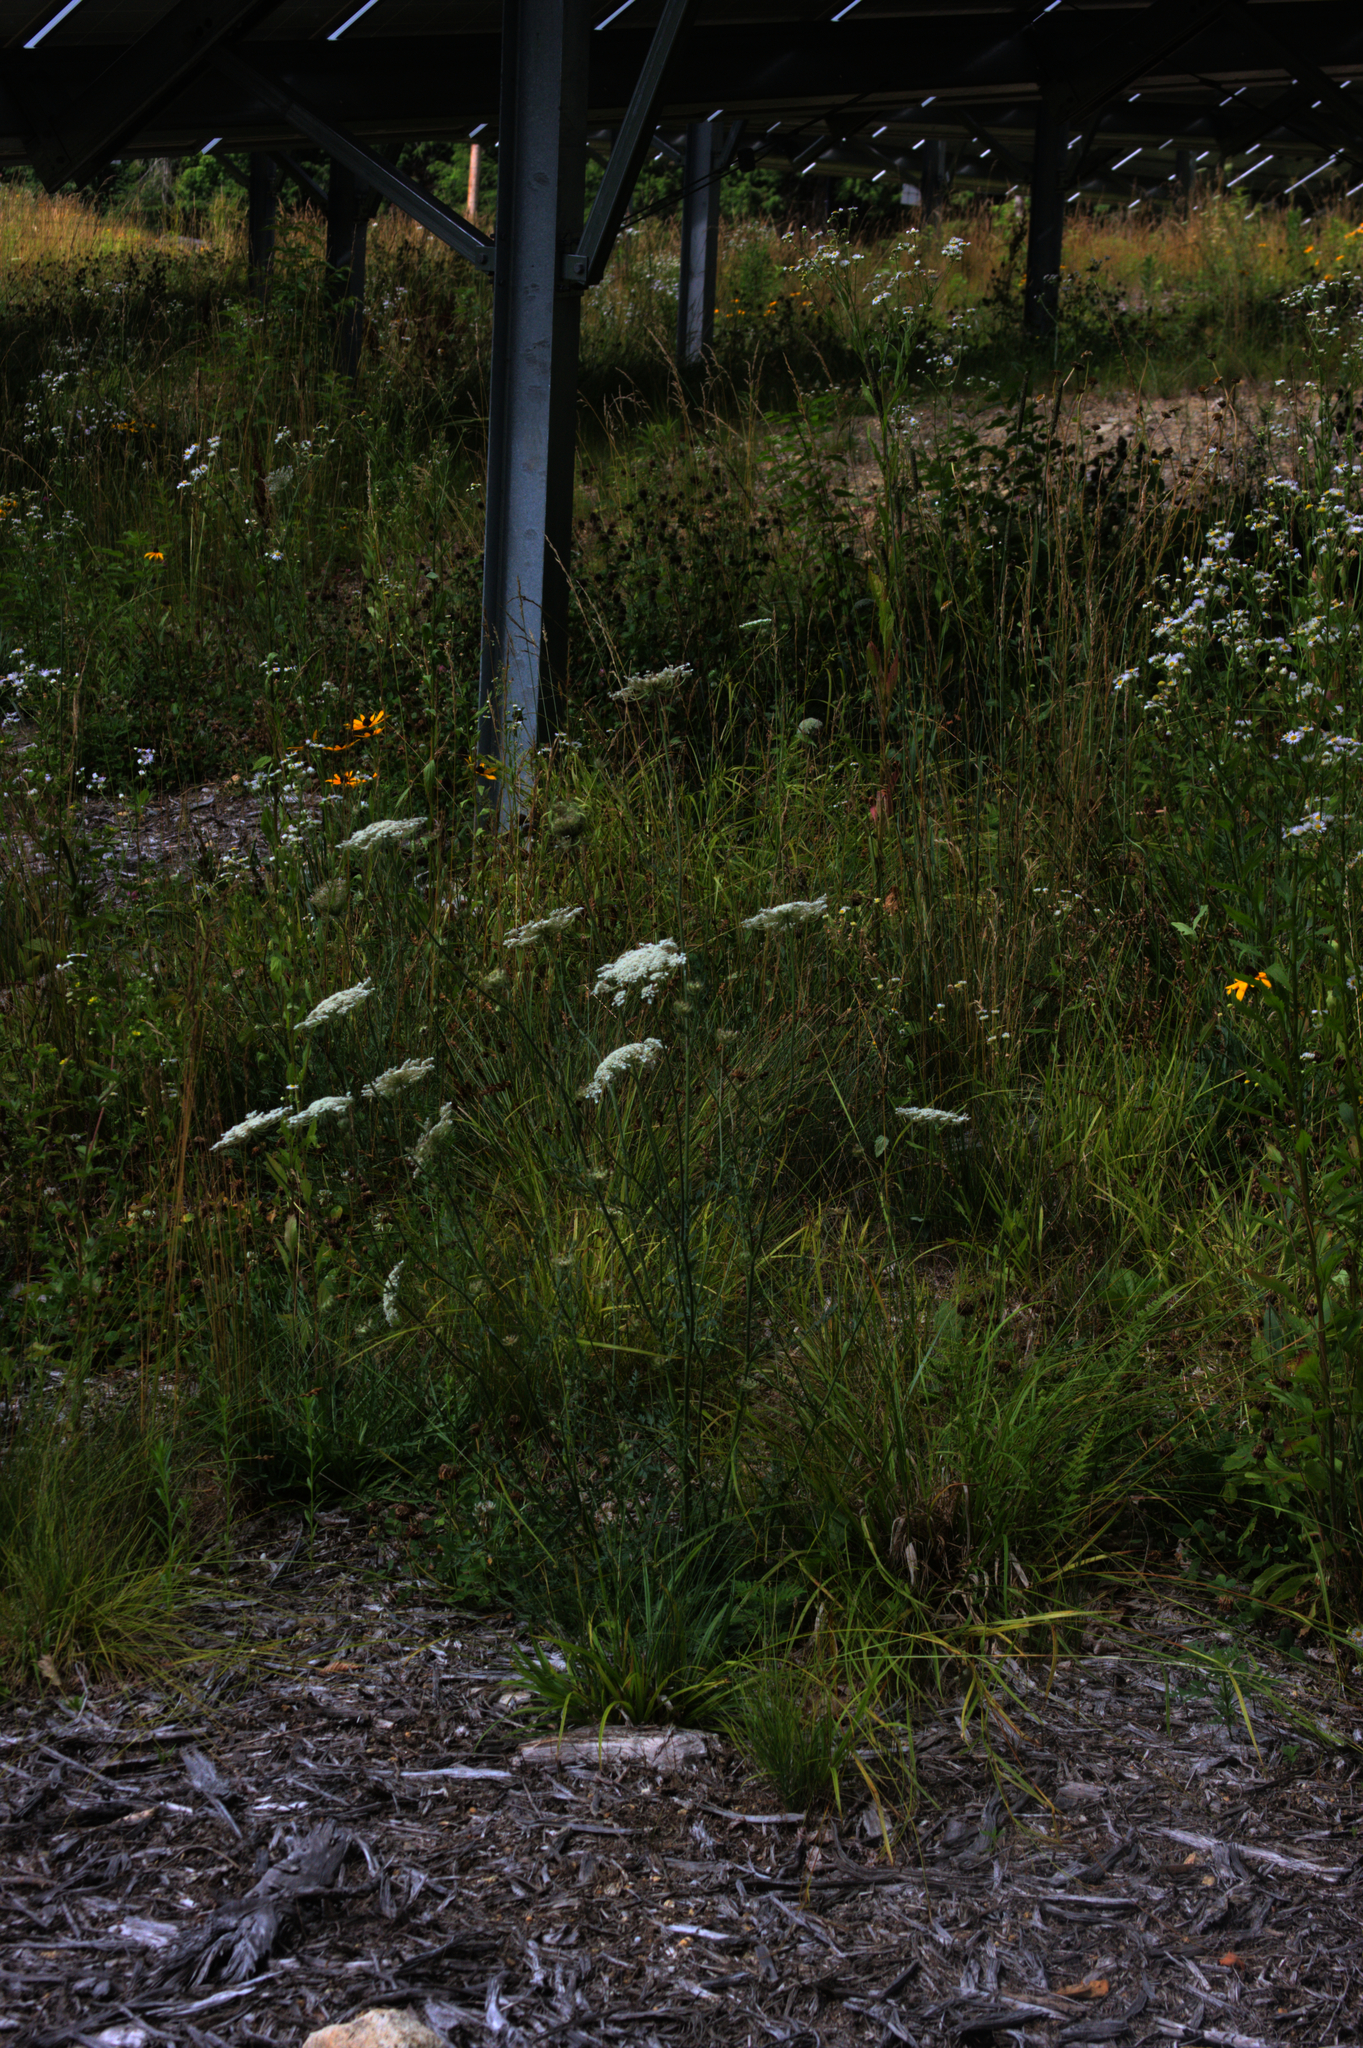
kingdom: Plantae
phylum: Tracheophyta
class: Magnoliopsida
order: Apiales
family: Apiaceae
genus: Daucus
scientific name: Daucus carota
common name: Wild carrot
